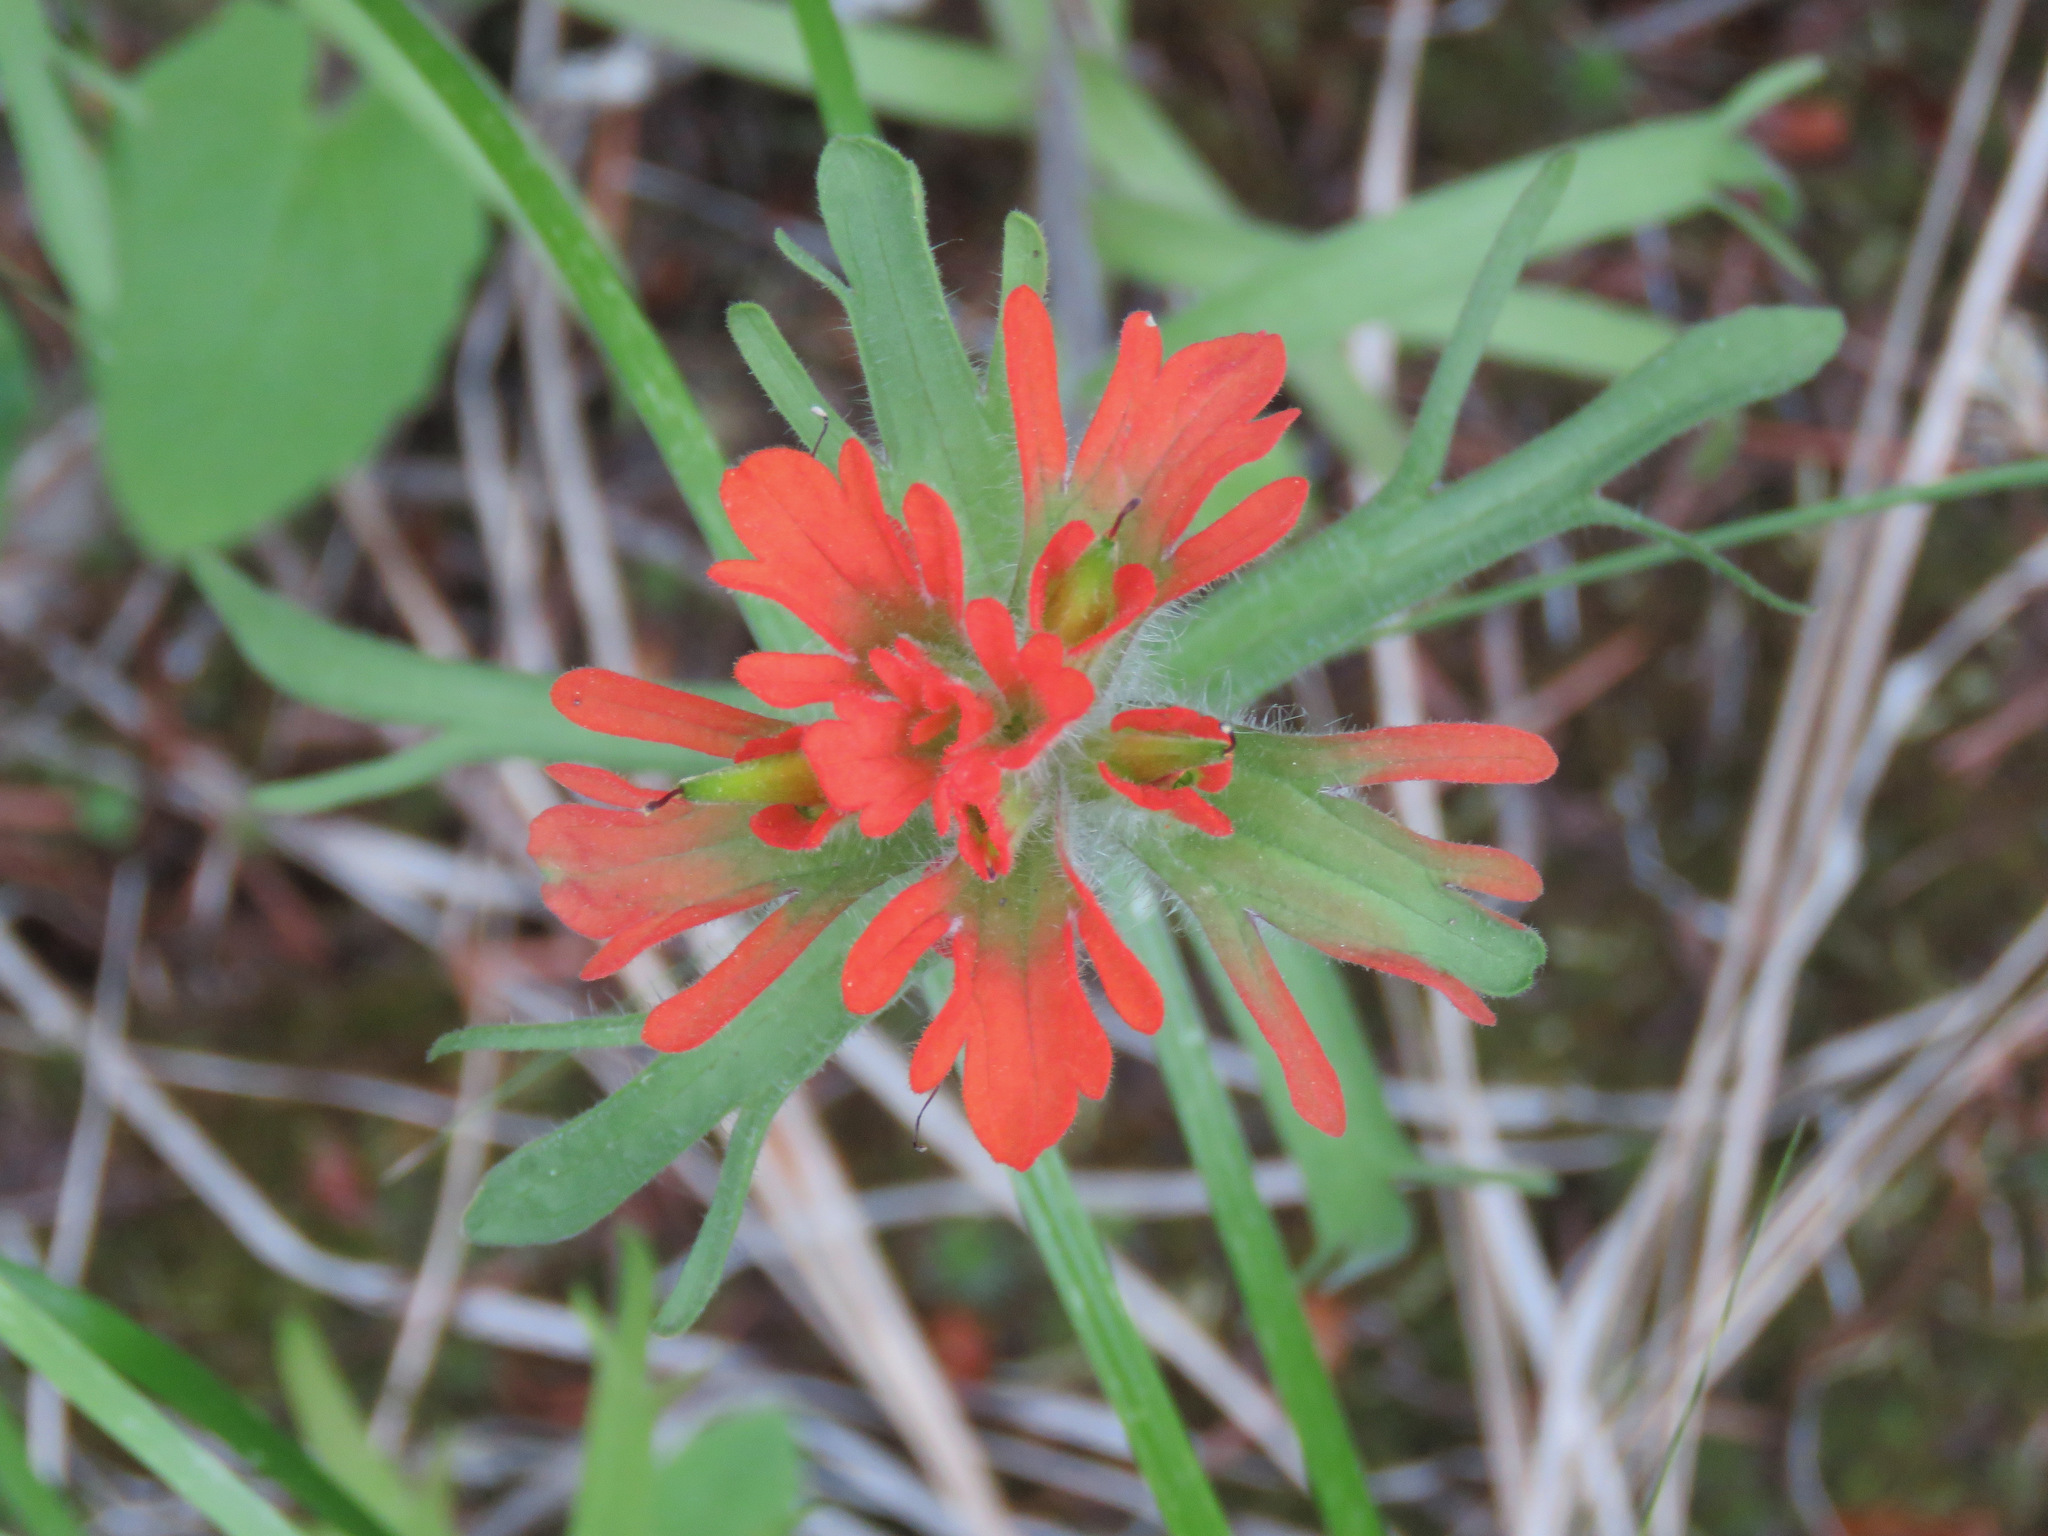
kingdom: Plantae
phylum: Tracheophyta
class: Magnoliopsida
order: Lamiales
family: Orobanchaceae
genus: Castilleja
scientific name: Castilleja hispida
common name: Bristly paintbrush
